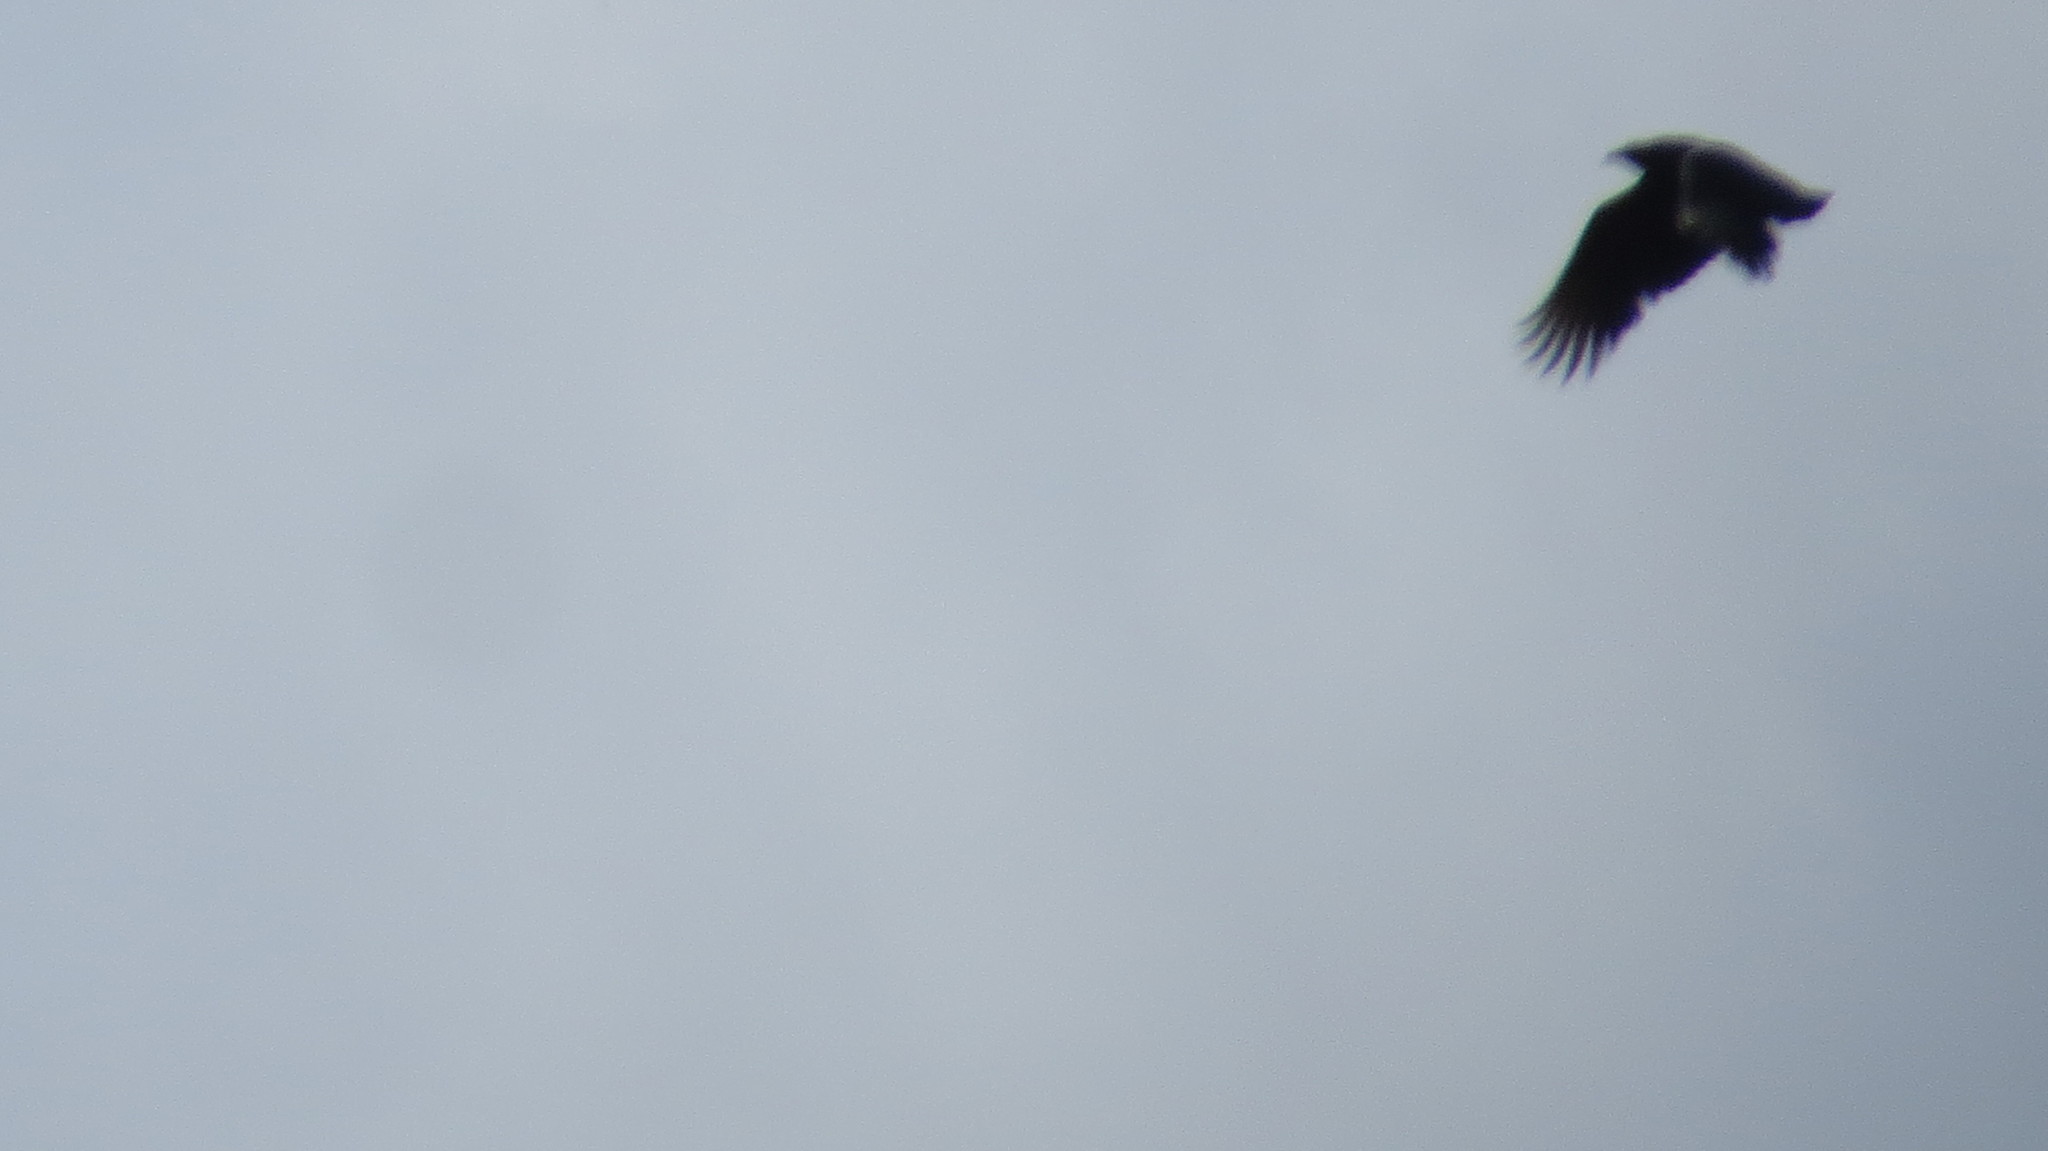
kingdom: Animalia
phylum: Chordata
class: Aves
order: Accipitriformes
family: Cathartidae
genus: Coragyps
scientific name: Coragyps atratus
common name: Black vulture
